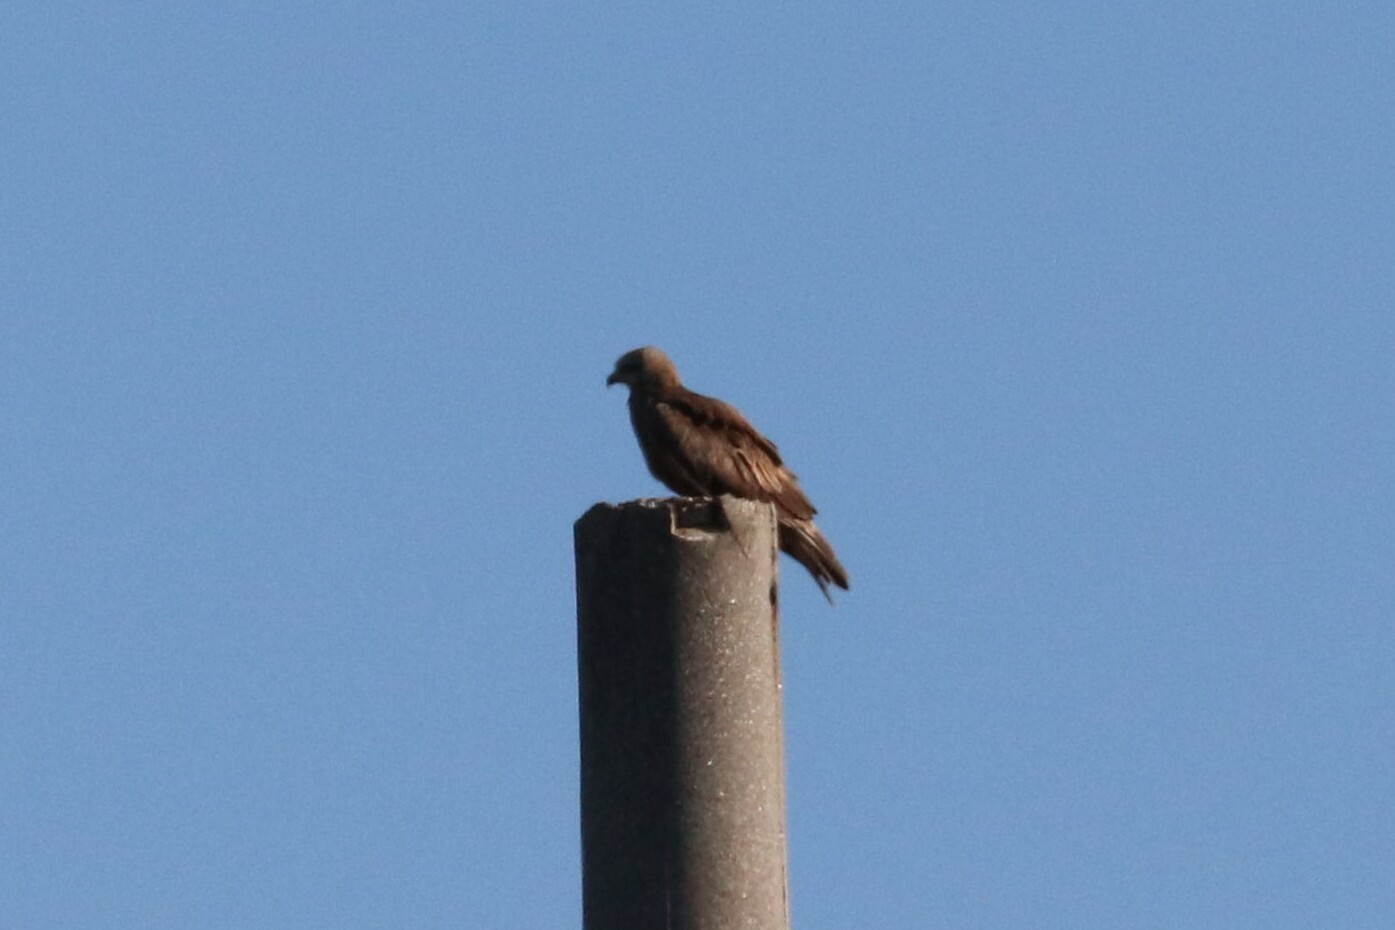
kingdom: Animalia
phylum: Chordata
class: Aves
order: Accipitriformes
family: Accipitridae
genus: Milvus
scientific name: Milvus migrans
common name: Black kite
